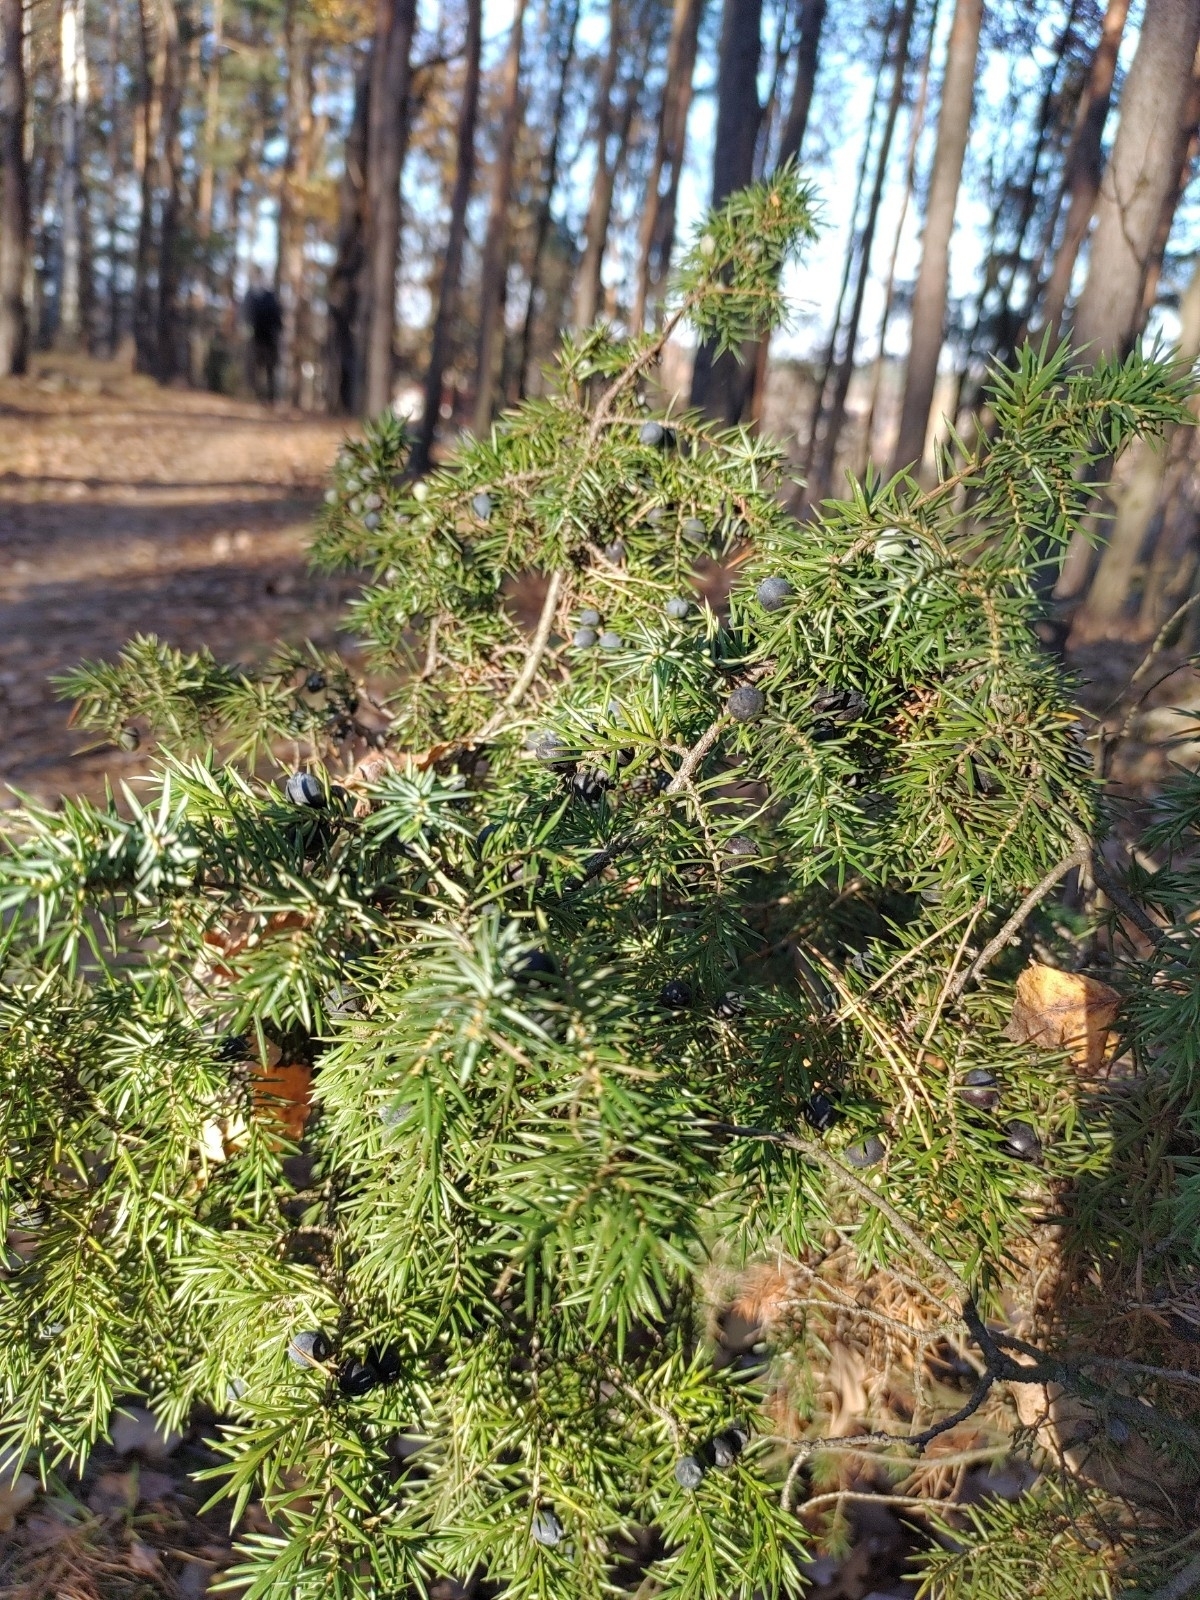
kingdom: Plantae
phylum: Tracheophyta
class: Pinopsida
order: Pinales
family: Cupressaceae
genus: Juniperus
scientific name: Juniperus communis
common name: Common juniper
